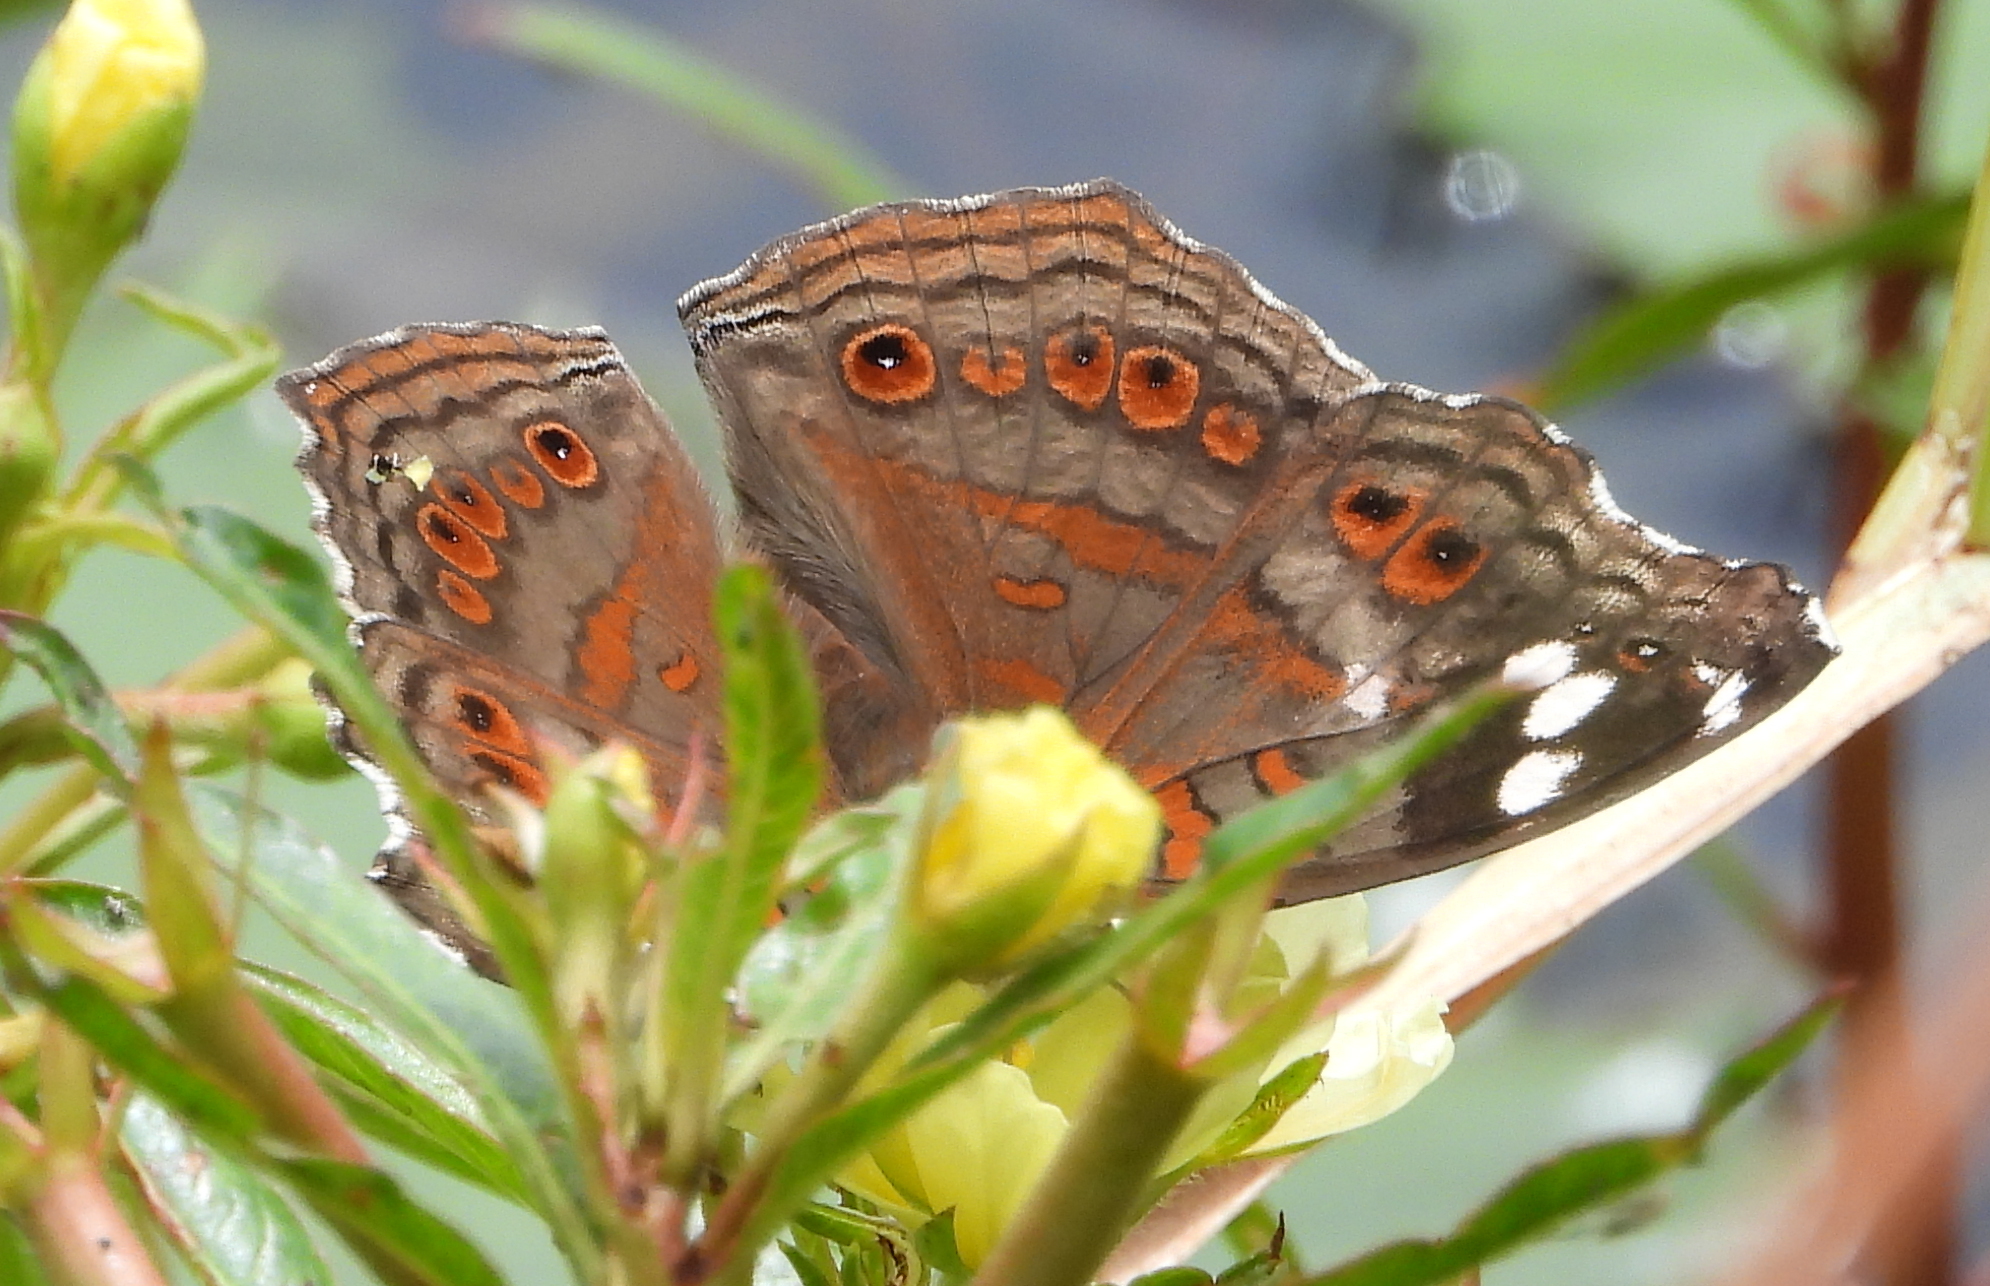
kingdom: Animalia
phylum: Arthropoda
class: Insecta
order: Lepidoptera
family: Nymphalidae
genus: Junonia
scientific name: Junonia natalica
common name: Brown pansy
